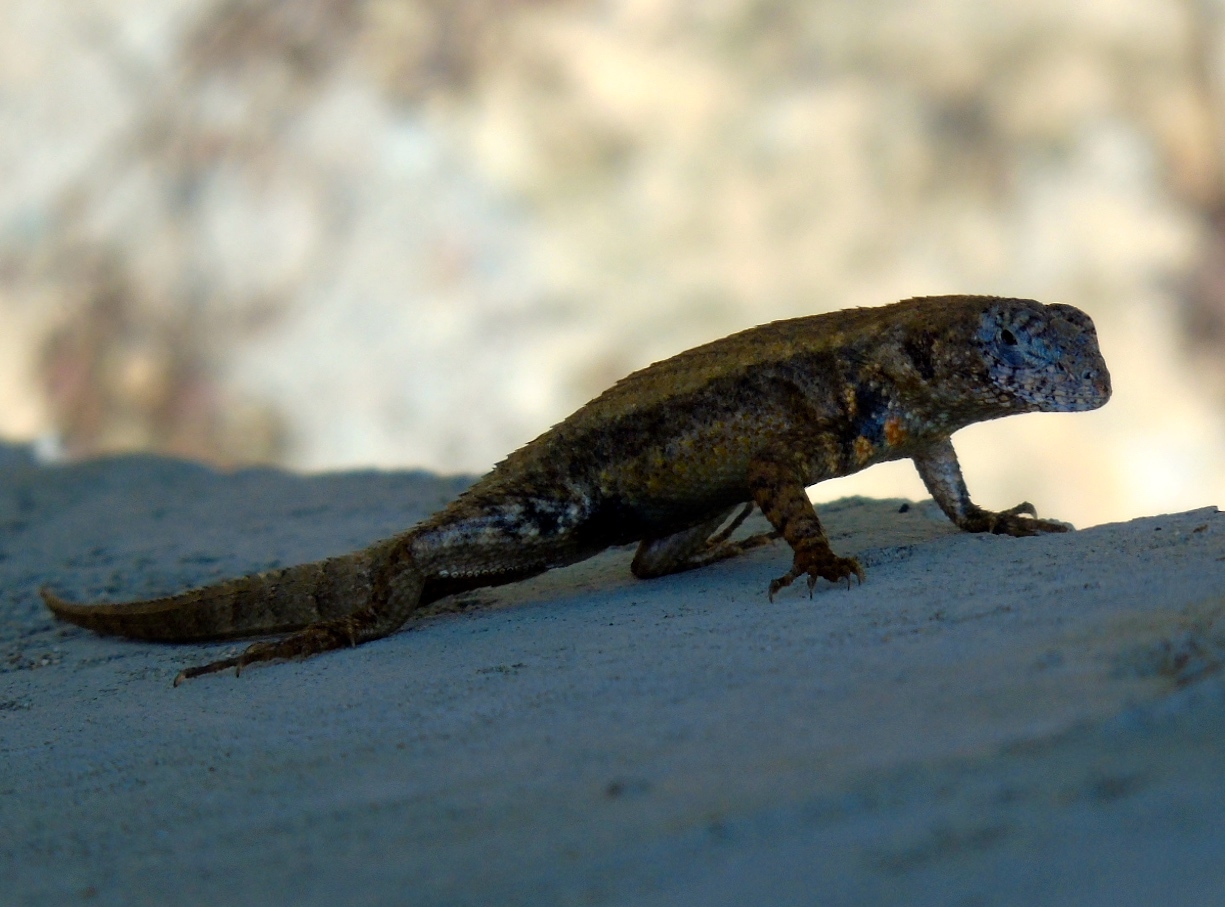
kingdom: Animalia
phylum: Chordata
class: Squamata
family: Phrynosomatidae
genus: Sceloporus
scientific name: Sceloporus nelsoni
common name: Nelson's spiny lizard
